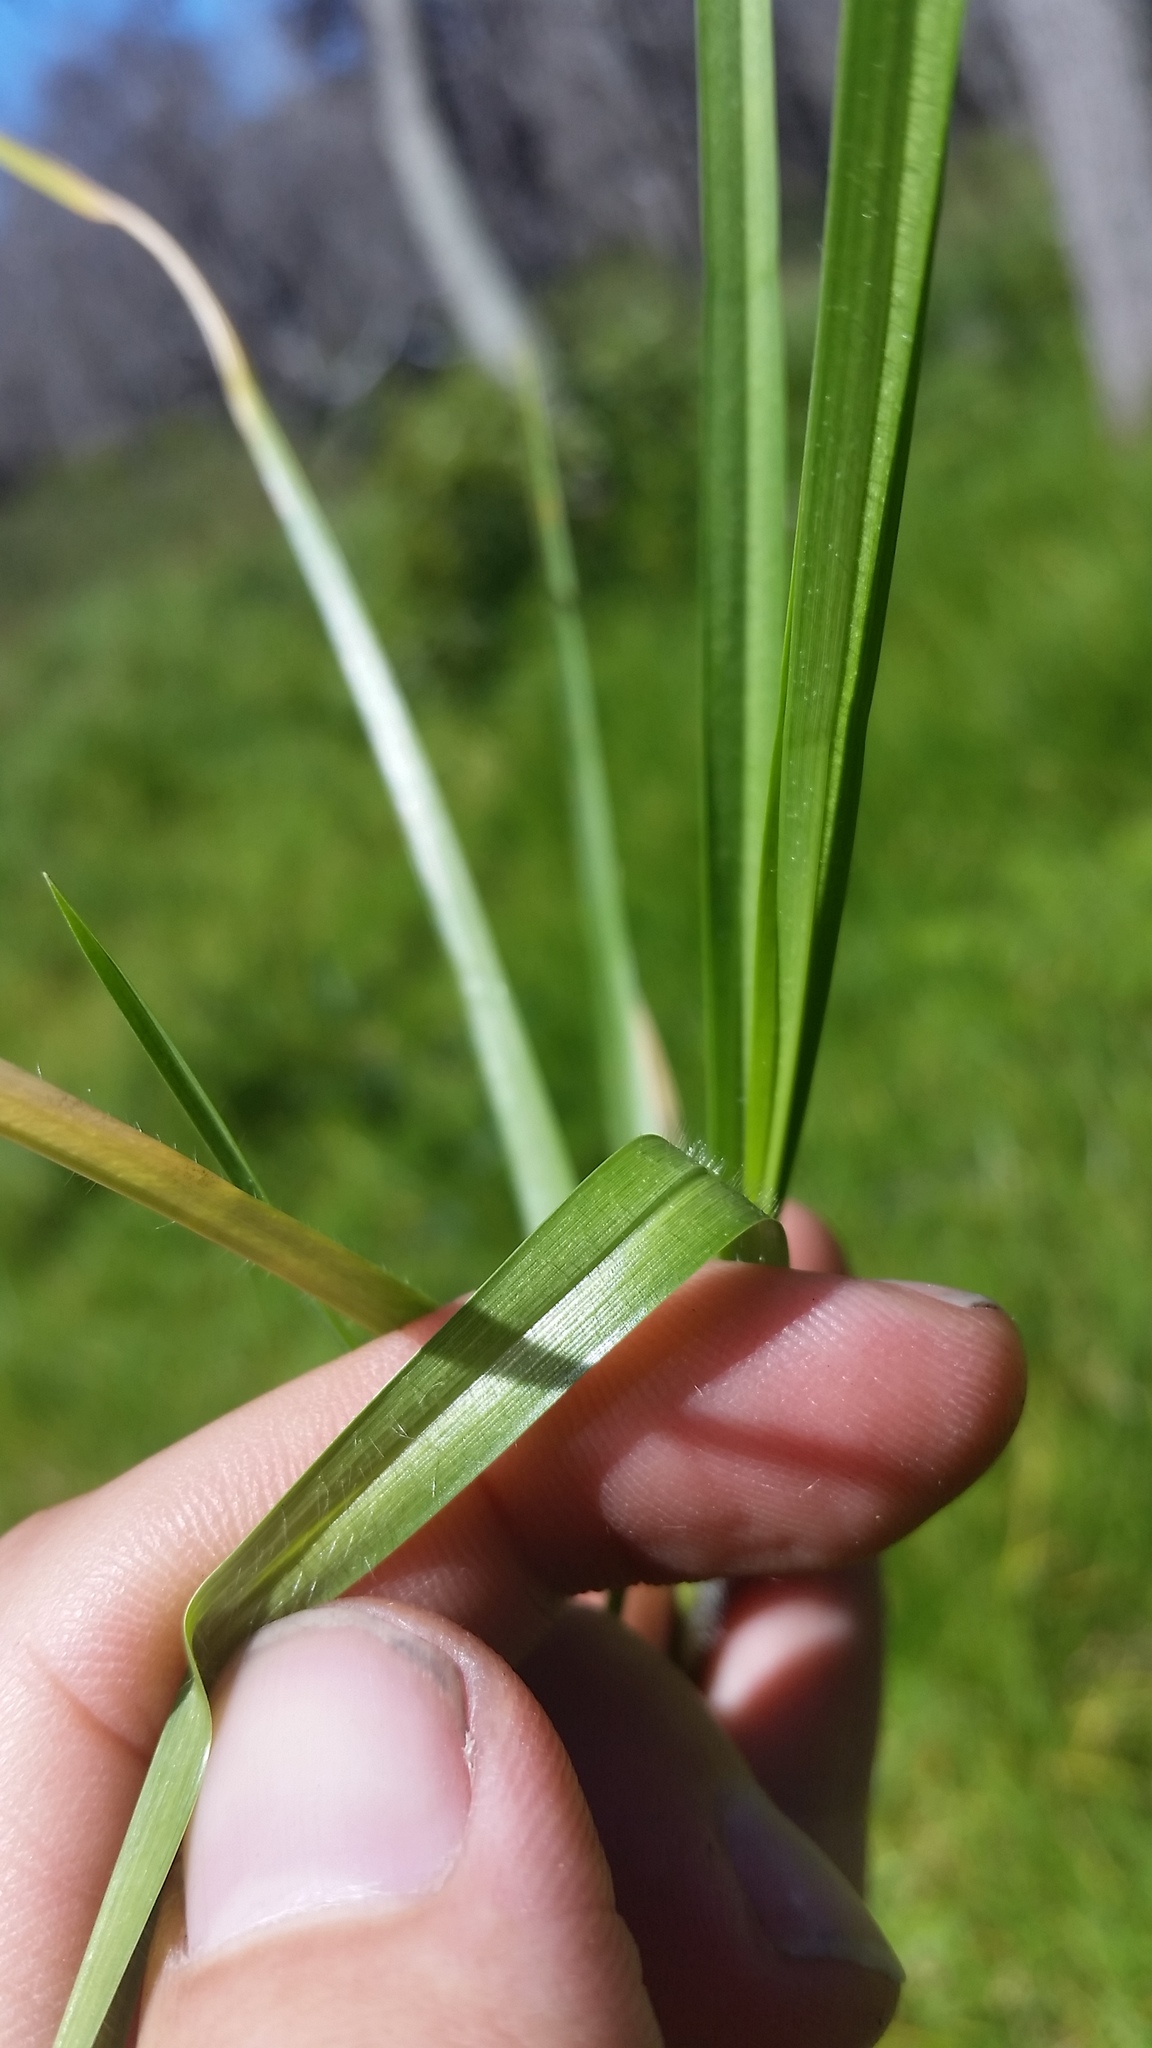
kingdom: Plantae
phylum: Tracheophyta
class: Liliopsida
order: Poales
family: Poaceae
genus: Cenchrus
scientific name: Cenchrus clandestinus
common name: Kikuyugrass
